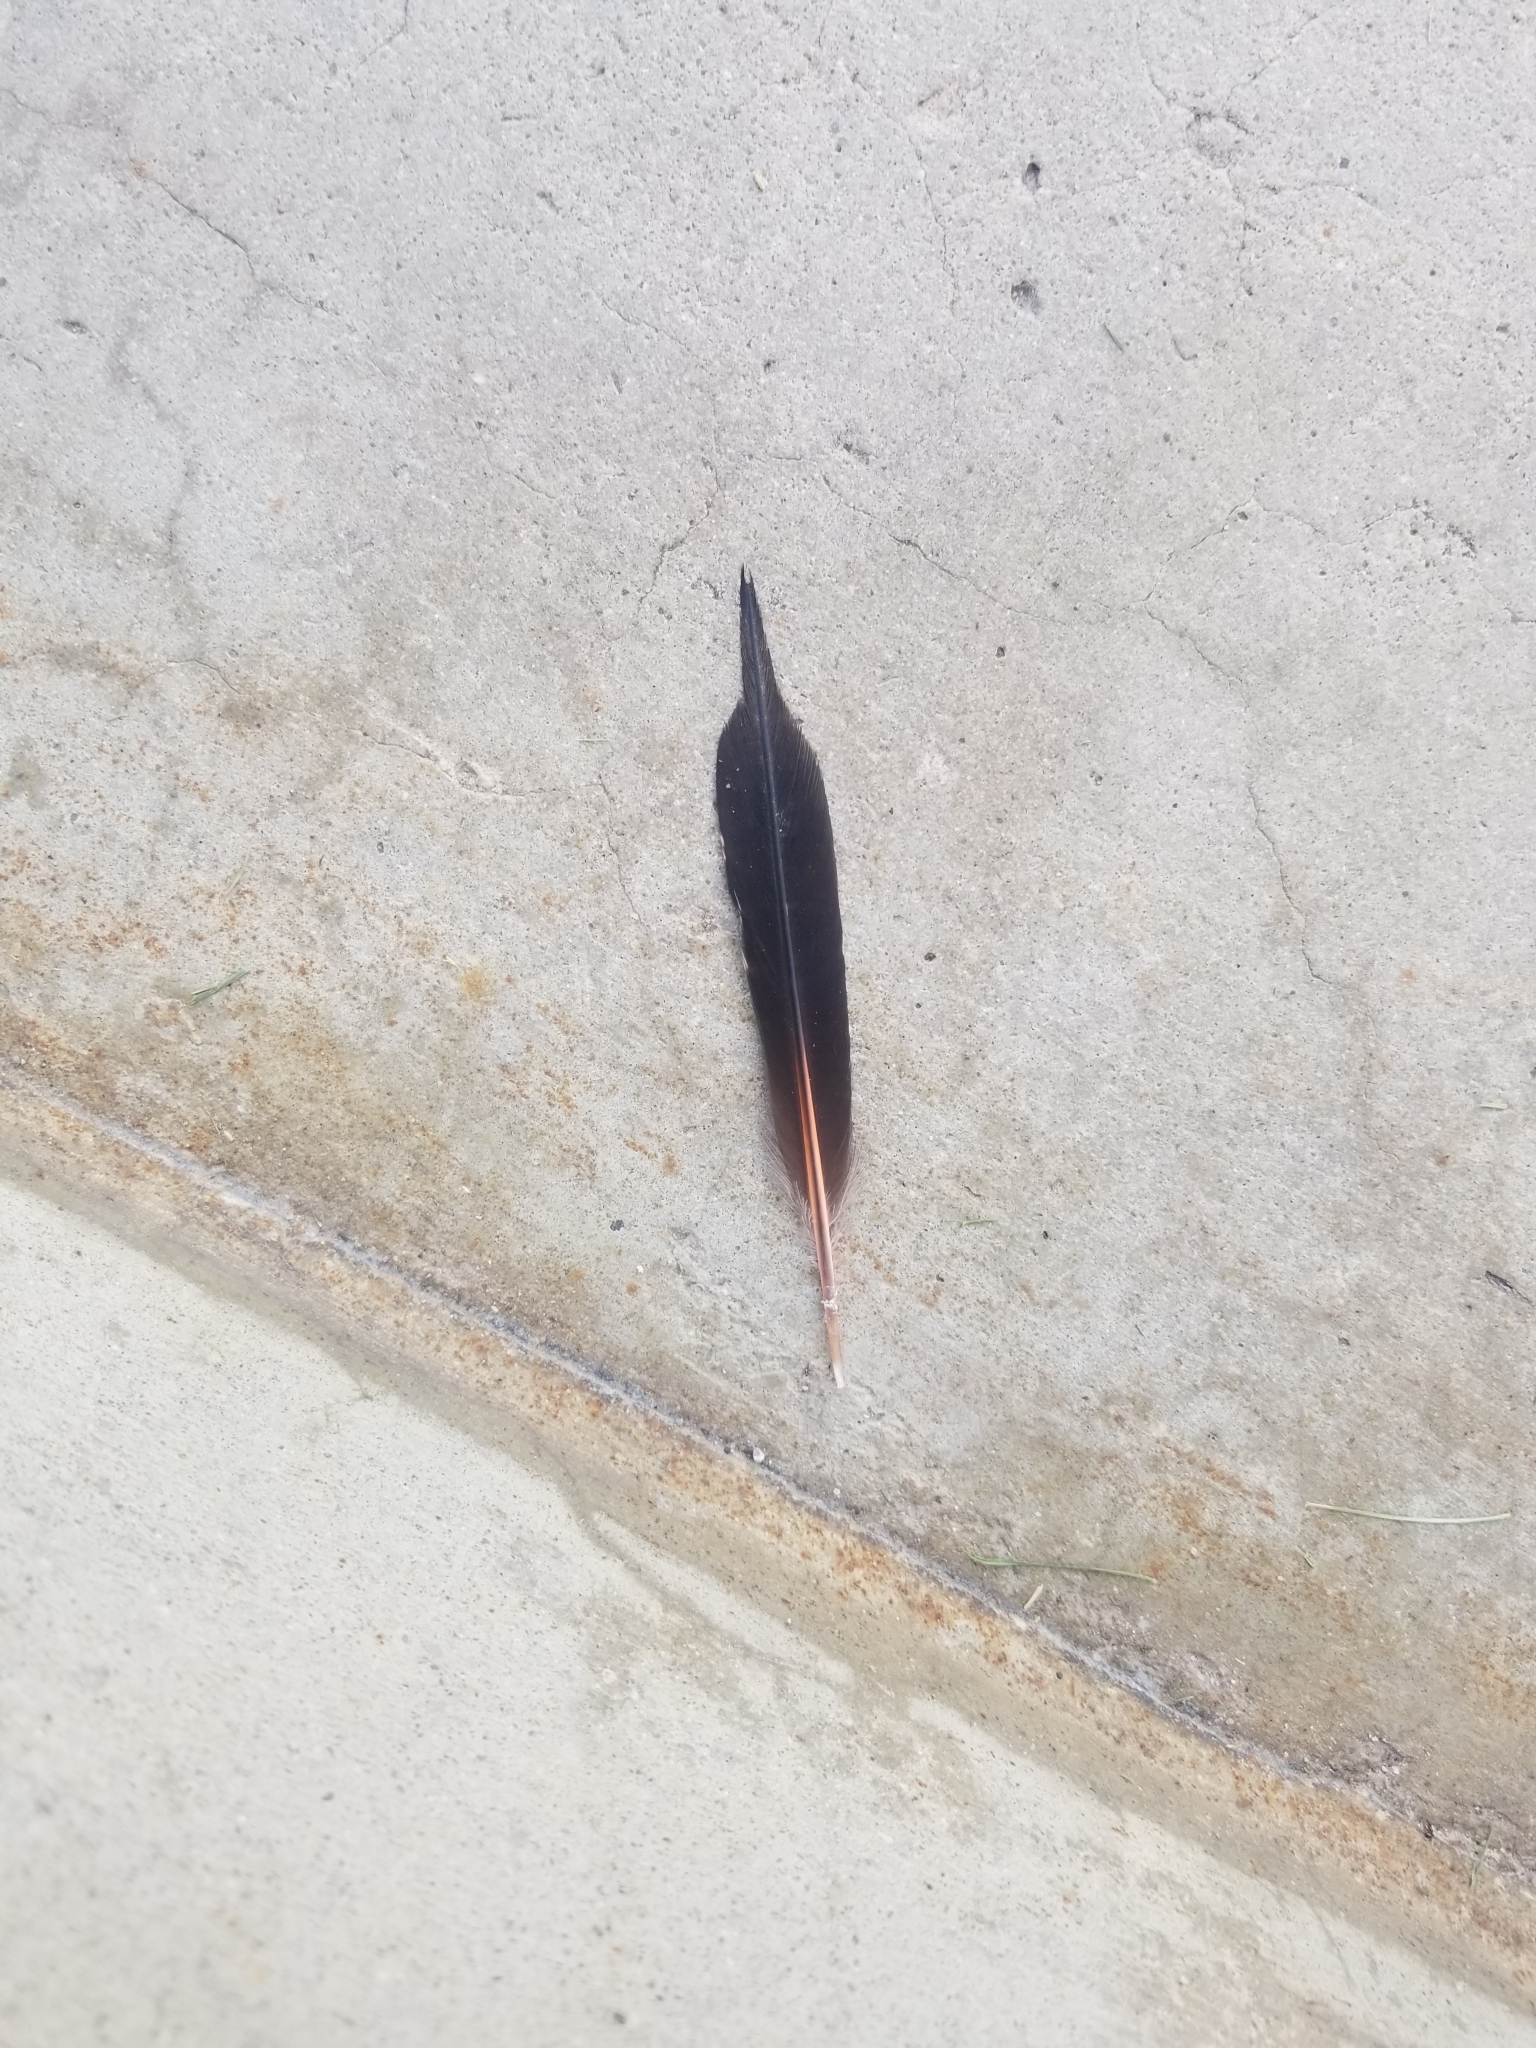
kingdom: Animalia
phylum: Chordata
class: Aves
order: Piciformes
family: Picidae
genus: Colaptes
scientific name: Colaptes auratus
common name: Northern flicker
